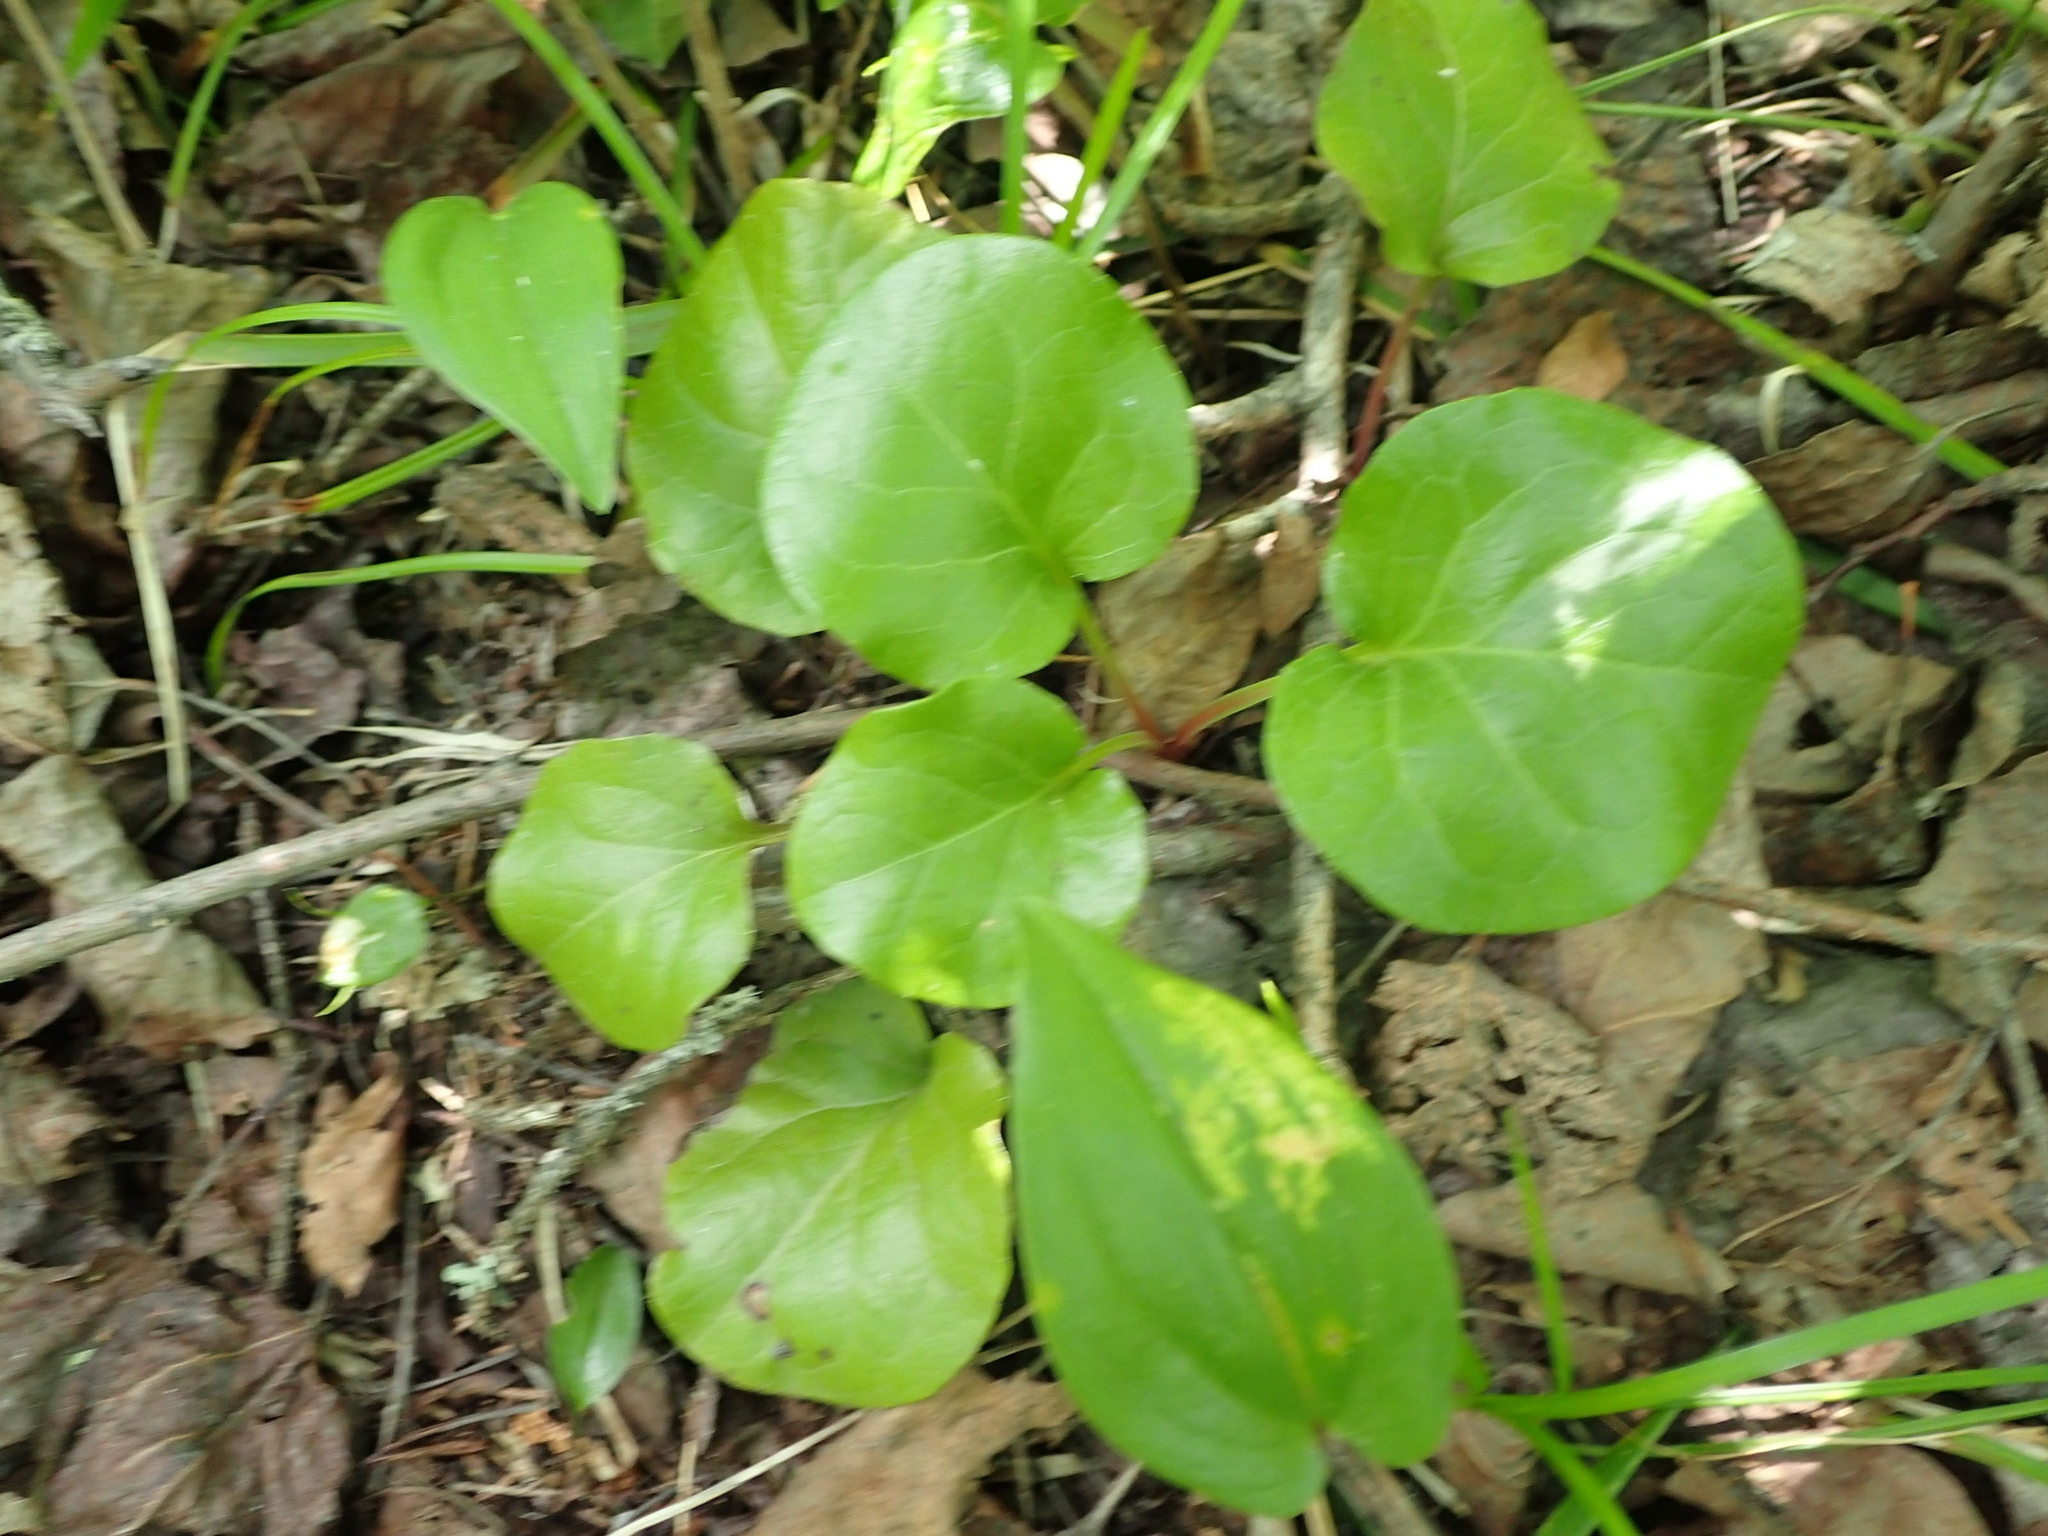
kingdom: Plantae
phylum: Tracheophyta
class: Magnoliopsida
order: Ericales
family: Ericaceae
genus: Pyrola
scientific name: Pyrola asarifolia
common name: Bog wintergreen
